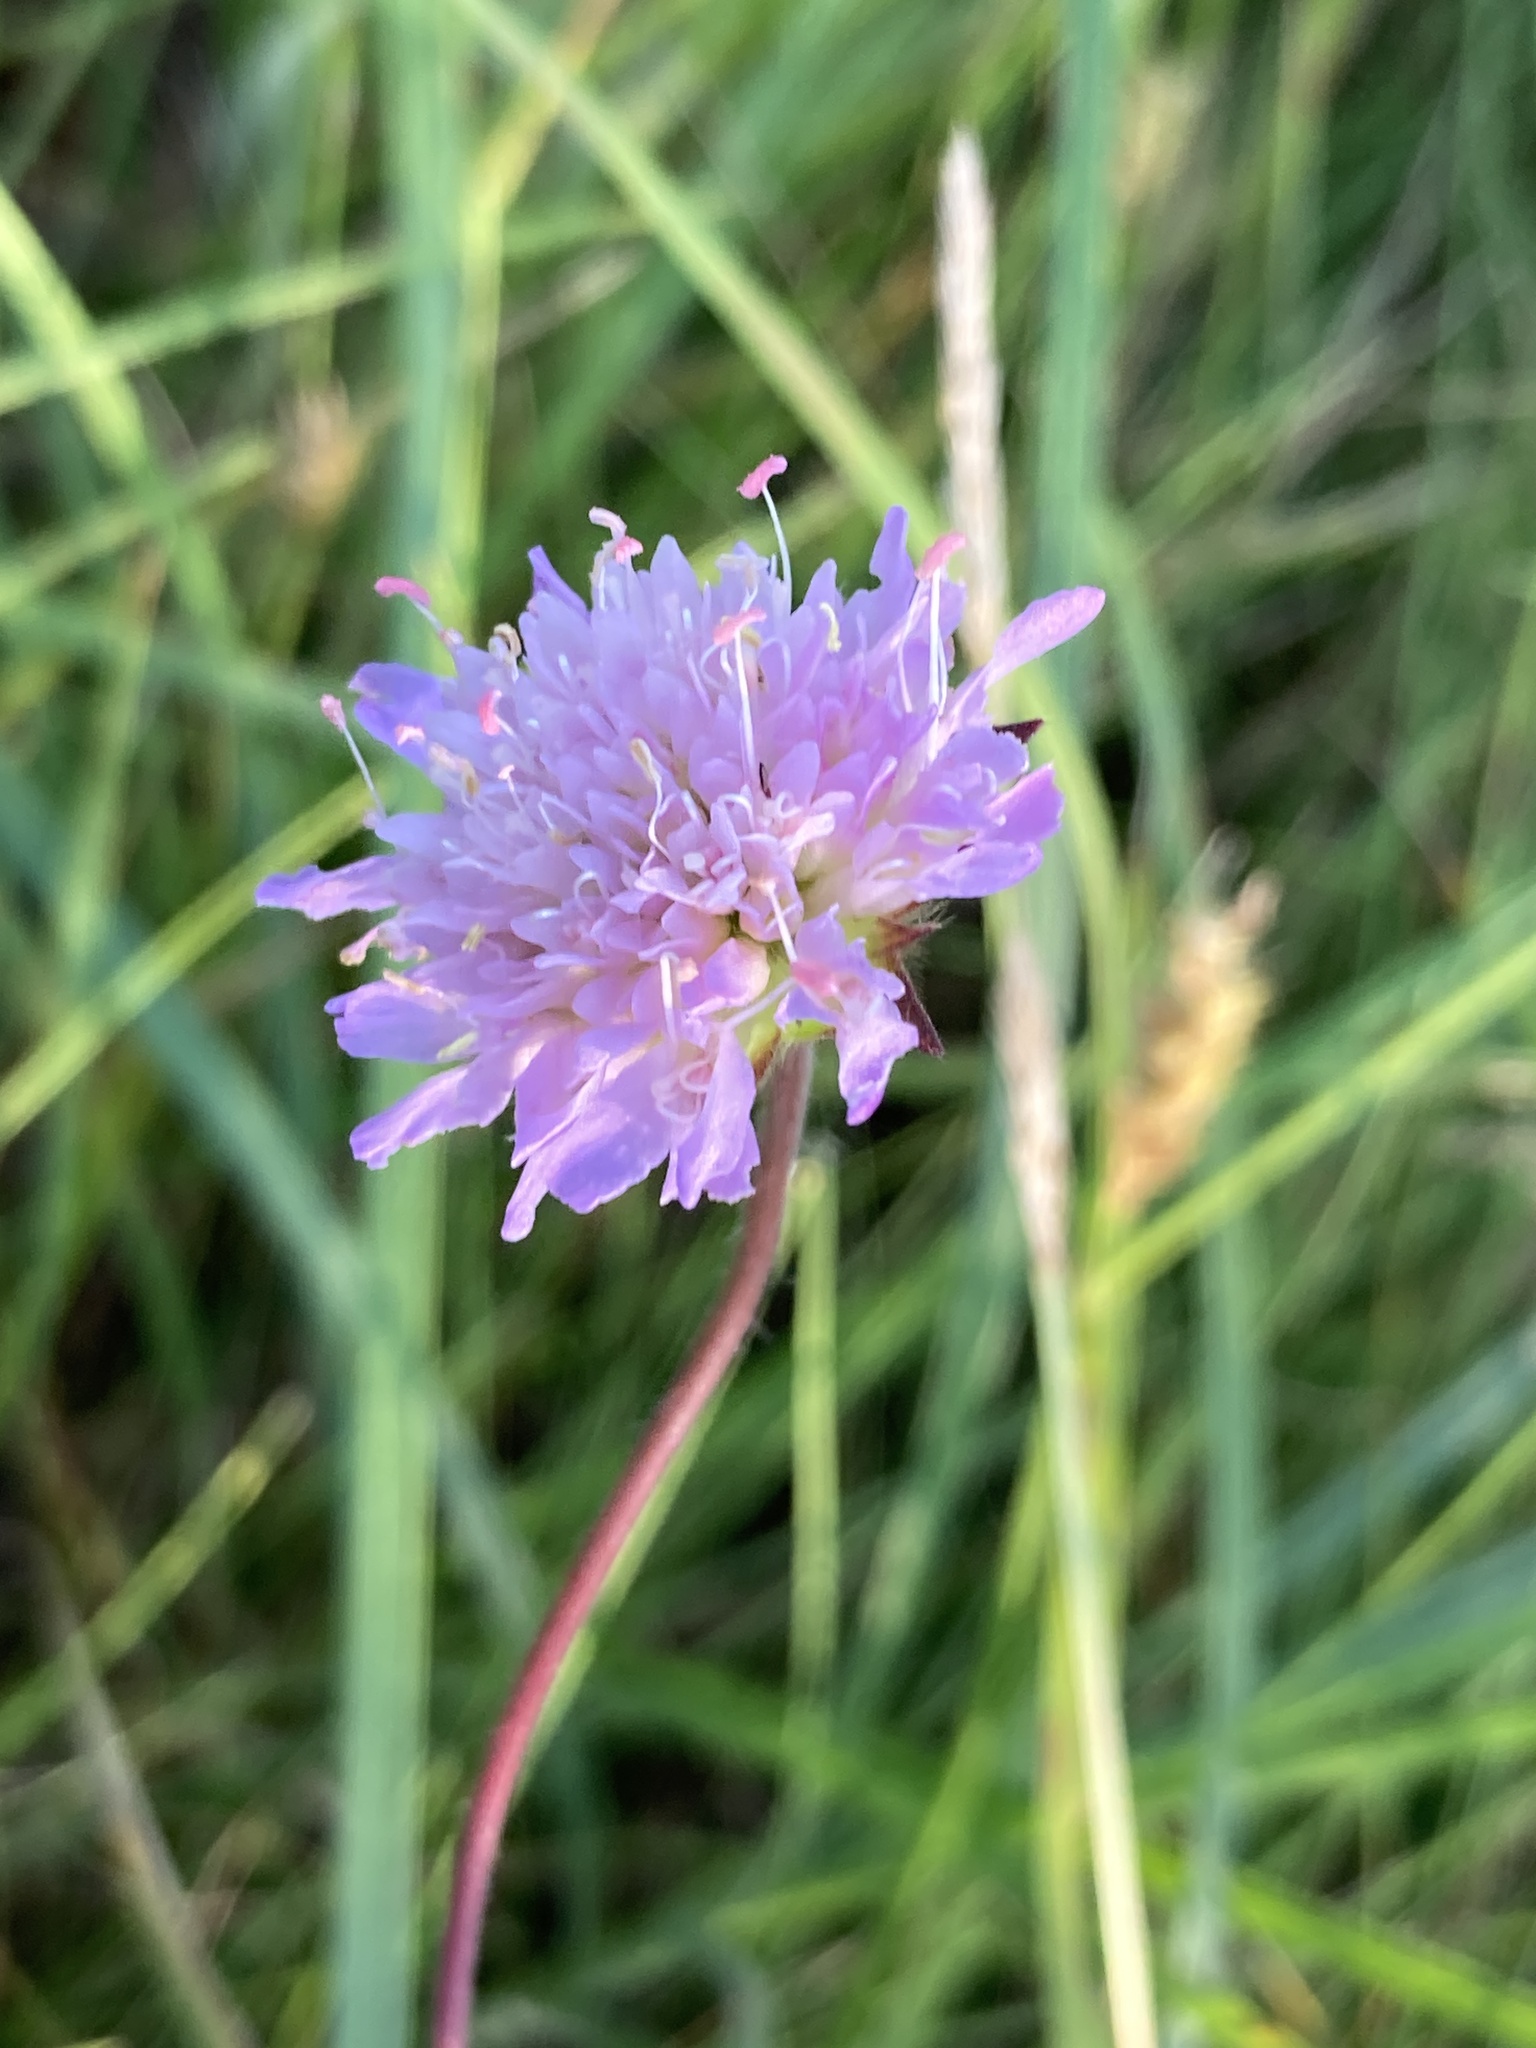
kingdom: Plantae
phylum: Tracheophyta
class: Magnoliopsida
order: Dipsacales
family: Caprifoliaceae
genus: Knautia
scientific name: Knautia arvensis
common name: Field scabiosa
